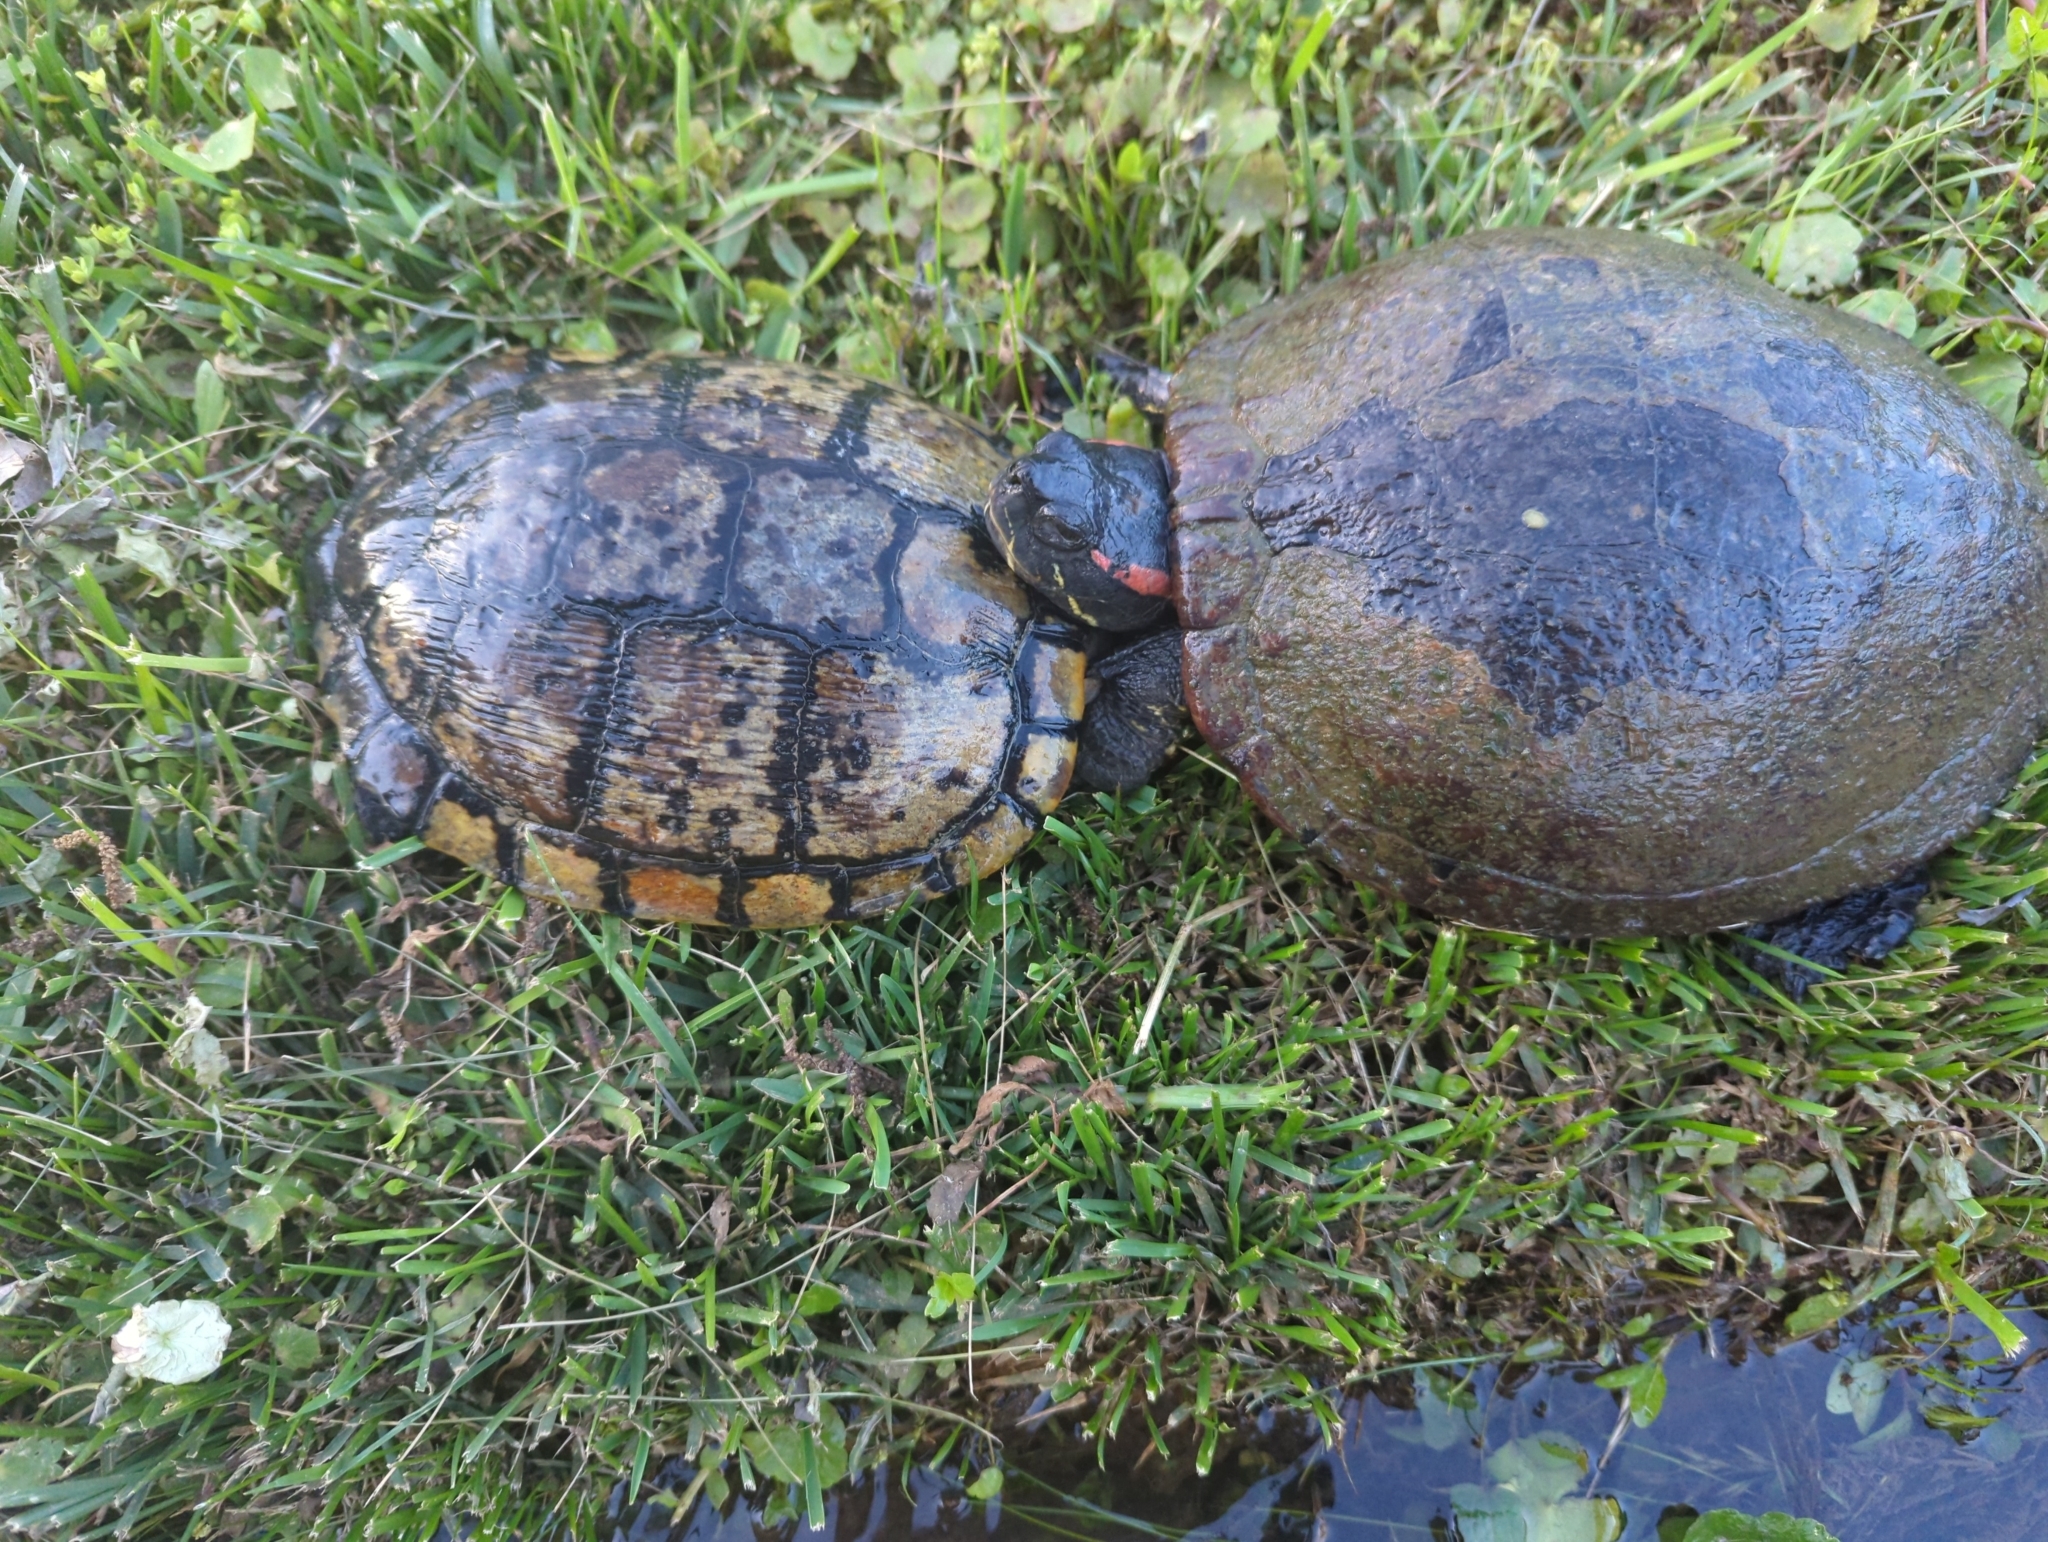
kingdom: Animalia
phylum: Chordata
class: Testudines
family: Emydidae
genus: Trachemys
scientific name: Trachemys scripta
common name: Slider
